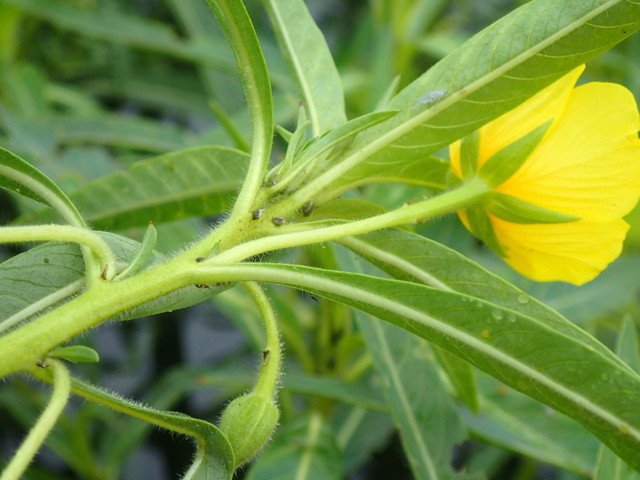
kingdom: Plantae
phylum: Tracheophyta
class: Magnoliopsida
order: Myrtales
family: Onagraceae
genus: Ludwigia
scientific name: Ludwigia peploides
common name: Floating primrose-willow
